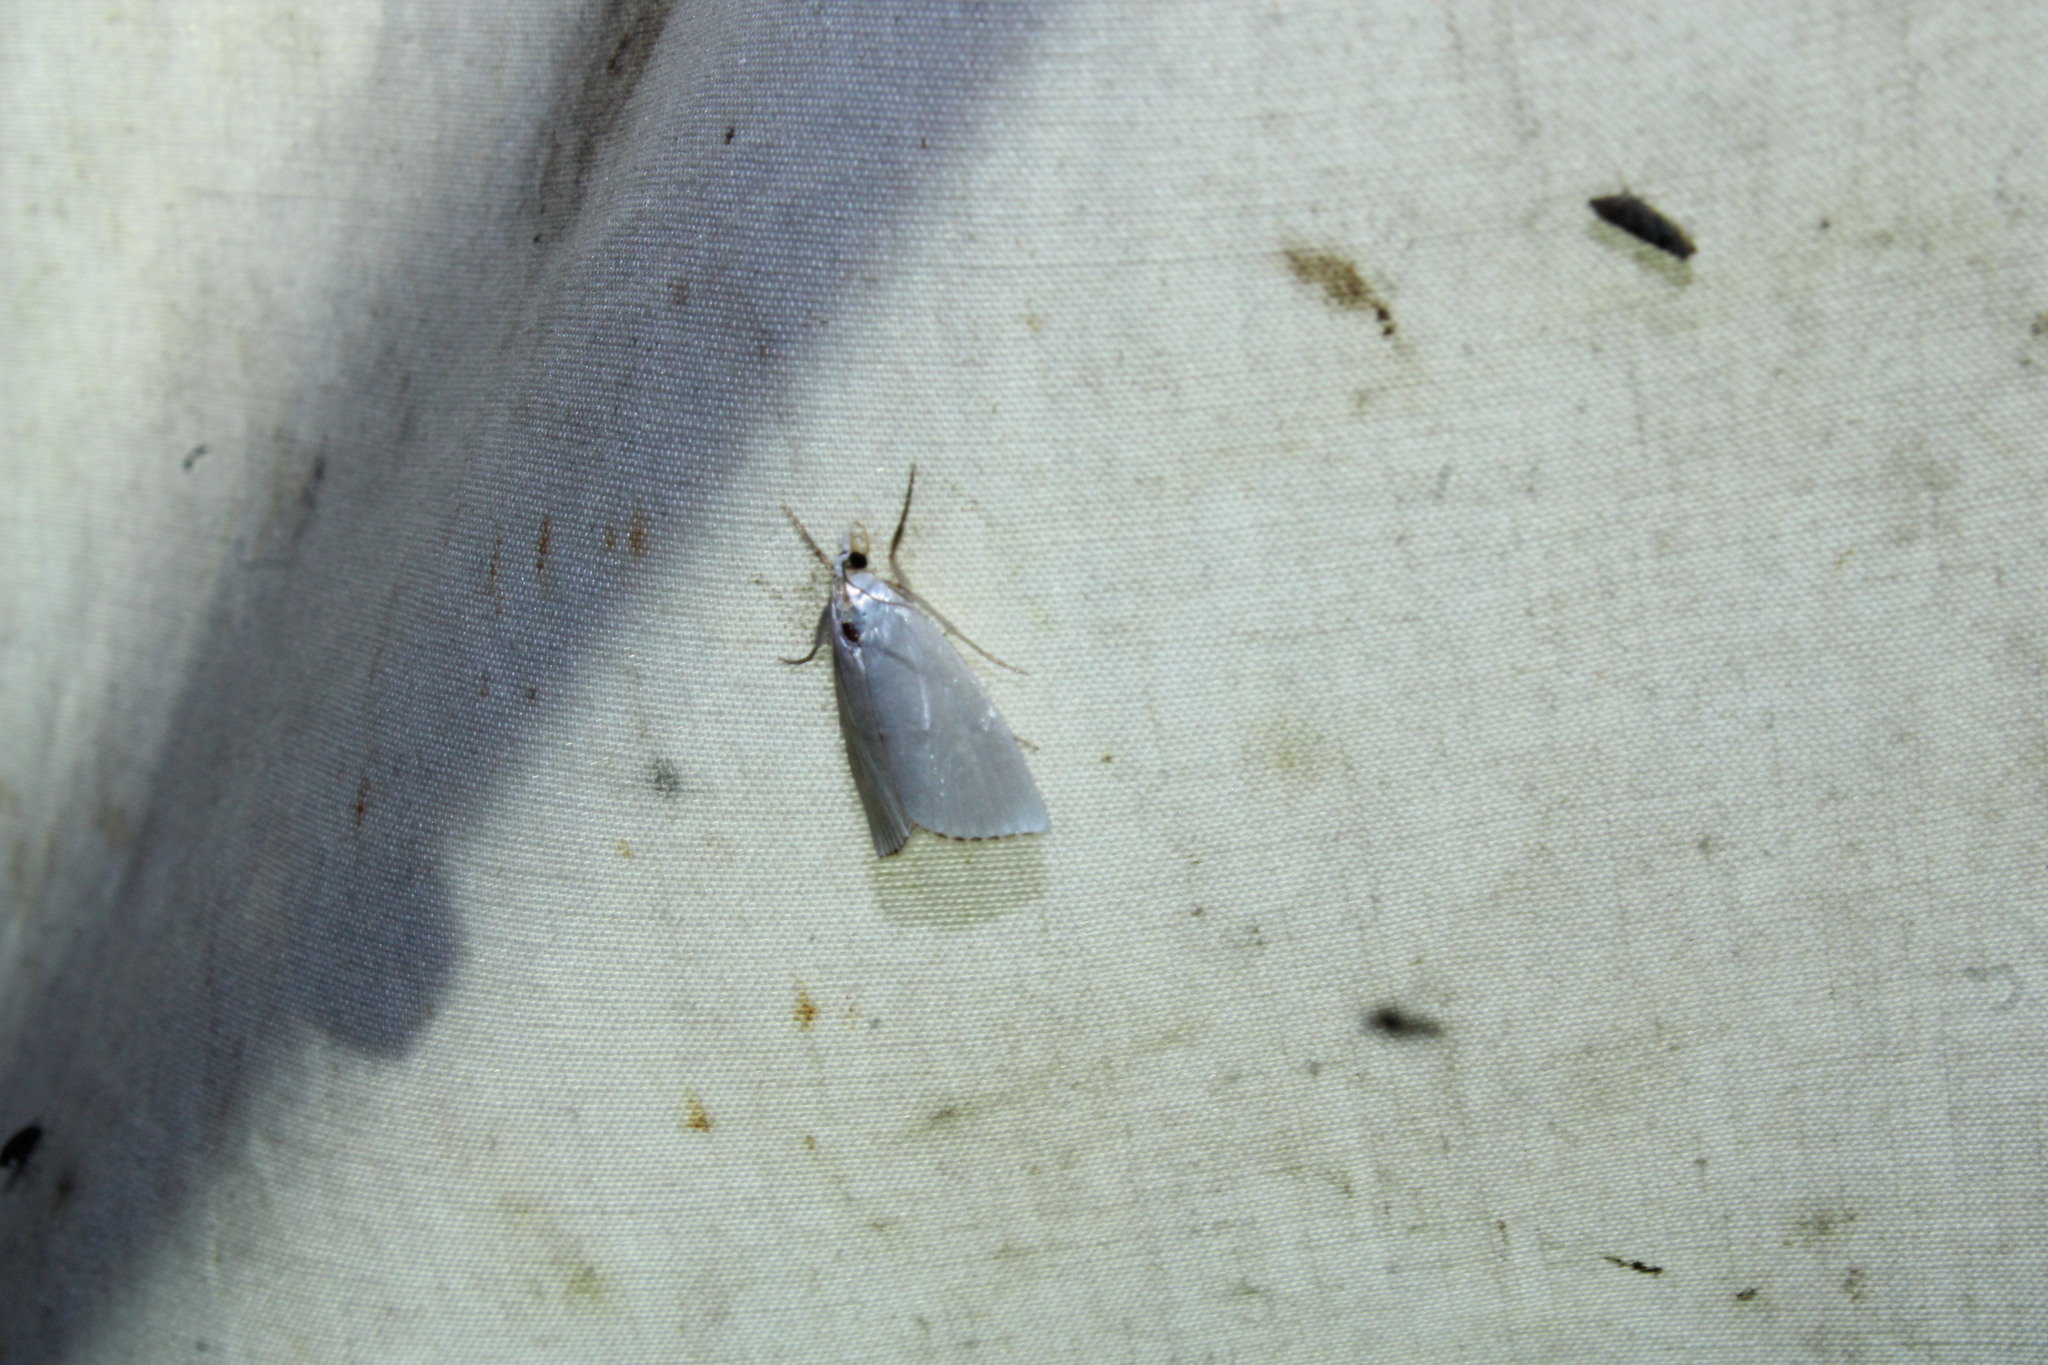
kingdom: Animalia
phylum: Arthropoda
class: Insecta
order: Lepidoptera
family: Crambidae
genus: Argyria
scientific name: Argyria nivalis
